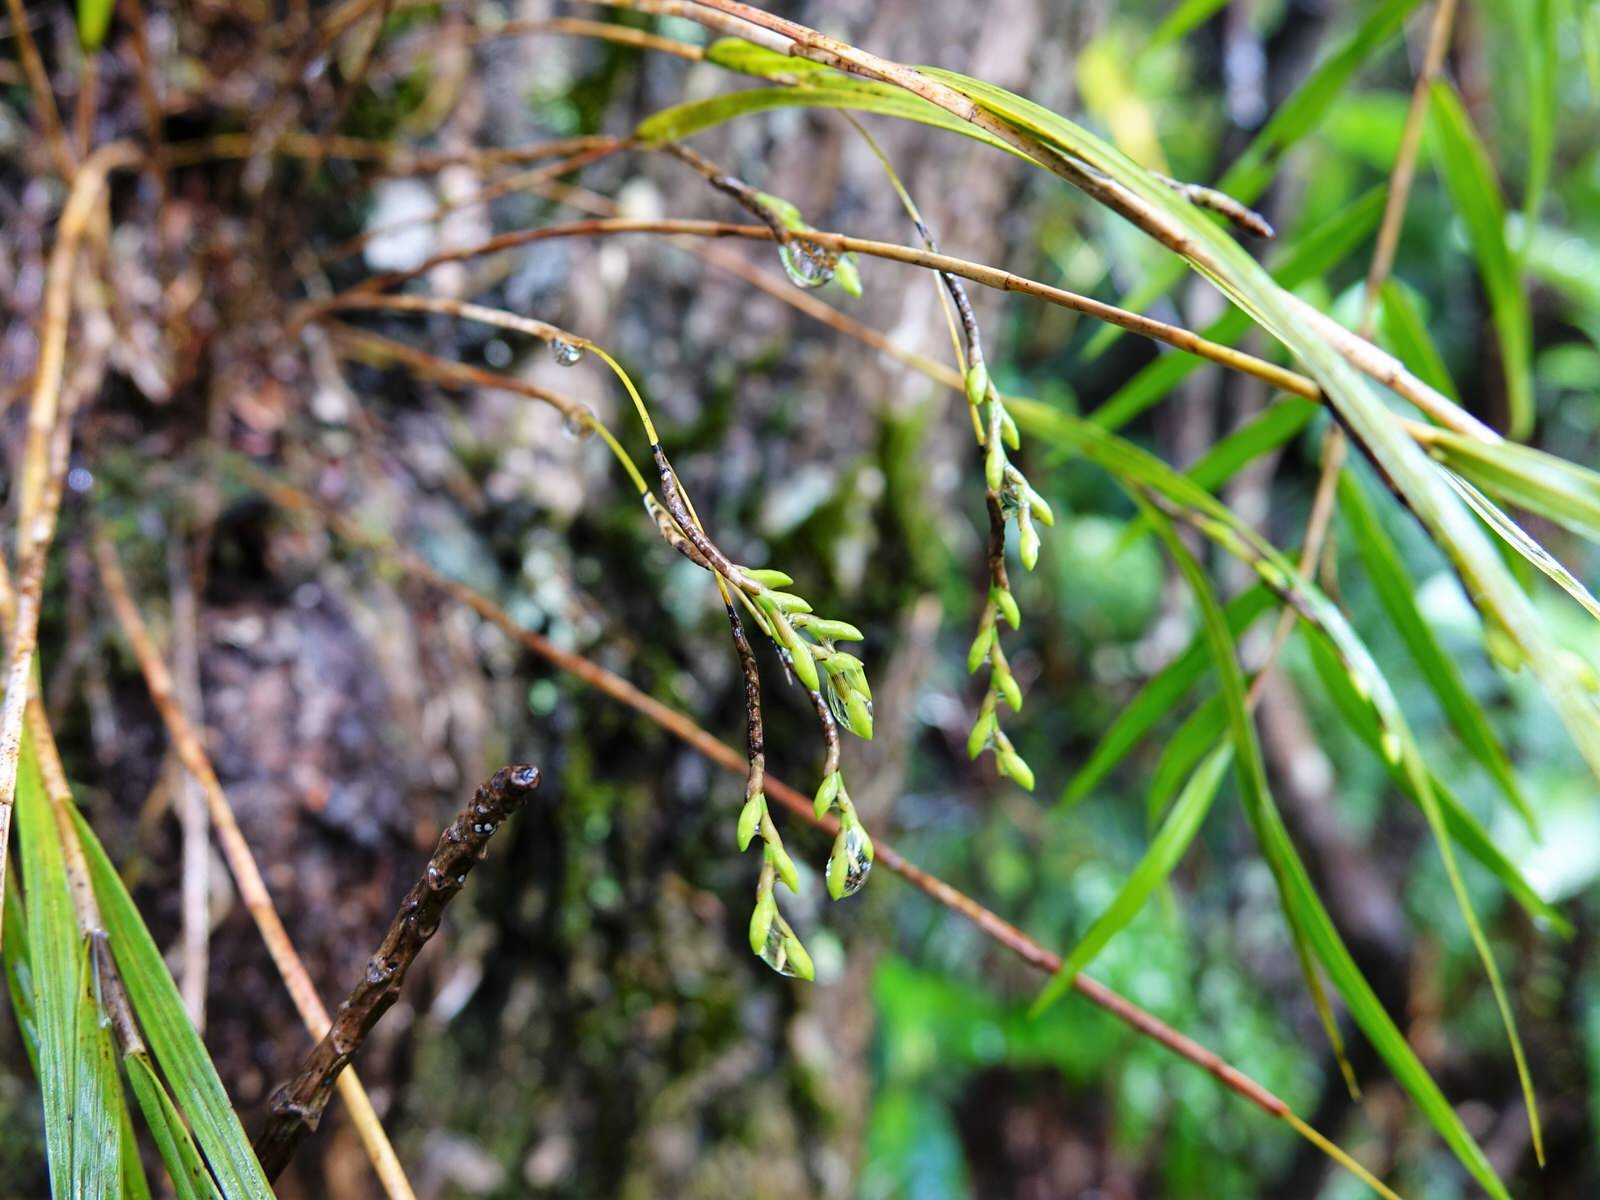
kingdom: Plantae
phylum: Tracheophyta
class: Liliopsida
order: Asparagales
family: Orchidaceae
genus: Earina
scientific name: Earina mucronata
